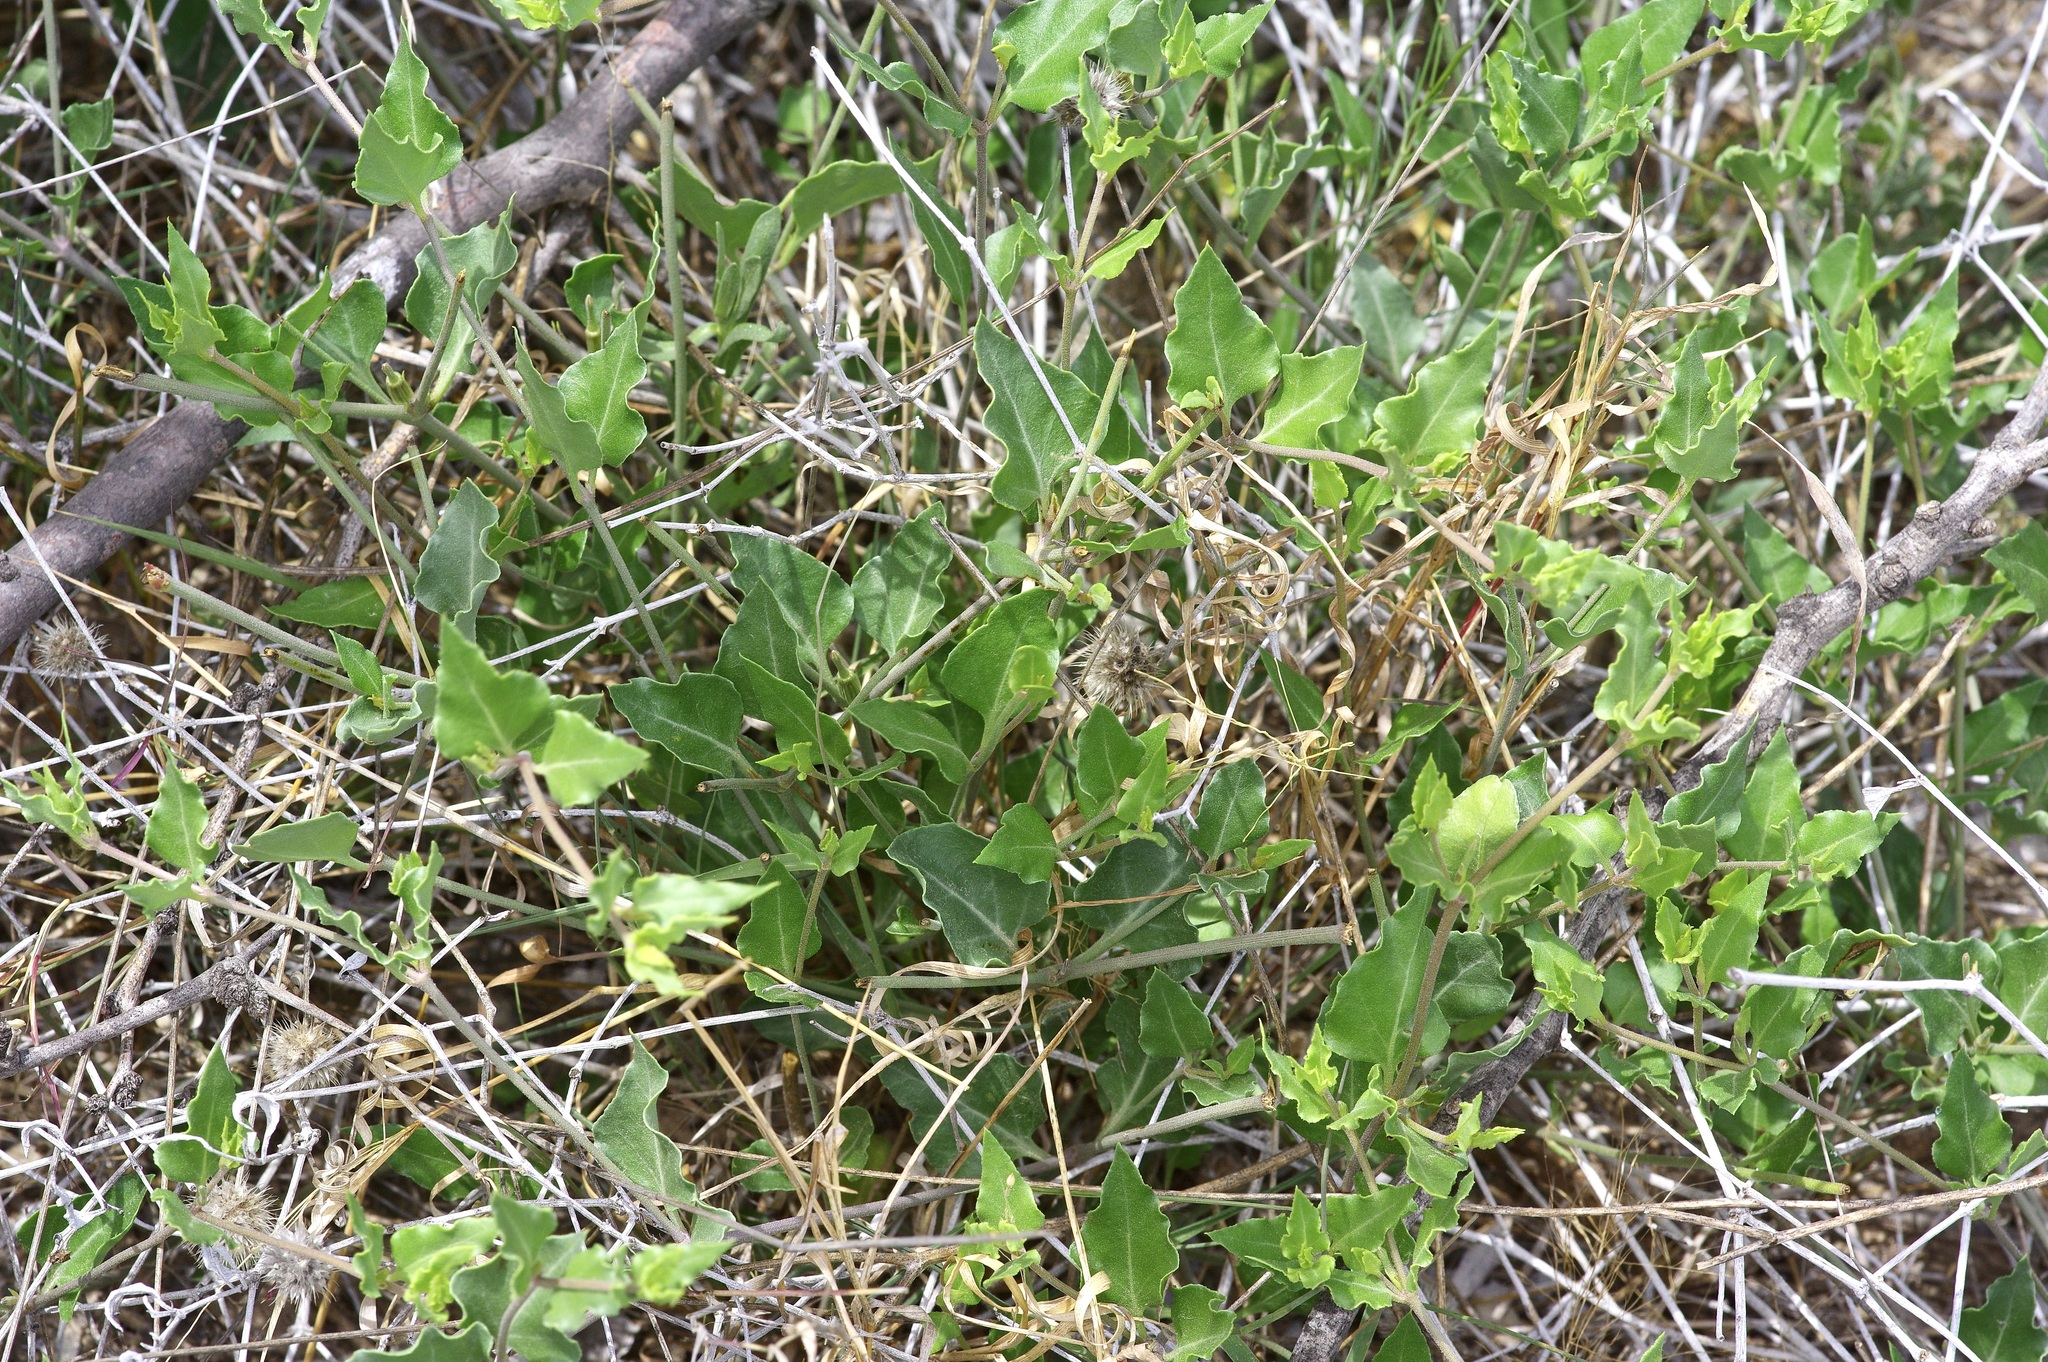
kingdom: Plantae
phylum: Tracheophyta
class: Magnoliopsida
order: Caryophyllales
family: Nyctaginaceae
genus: Acleisanthes
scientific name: Acleisanthes longiflora
